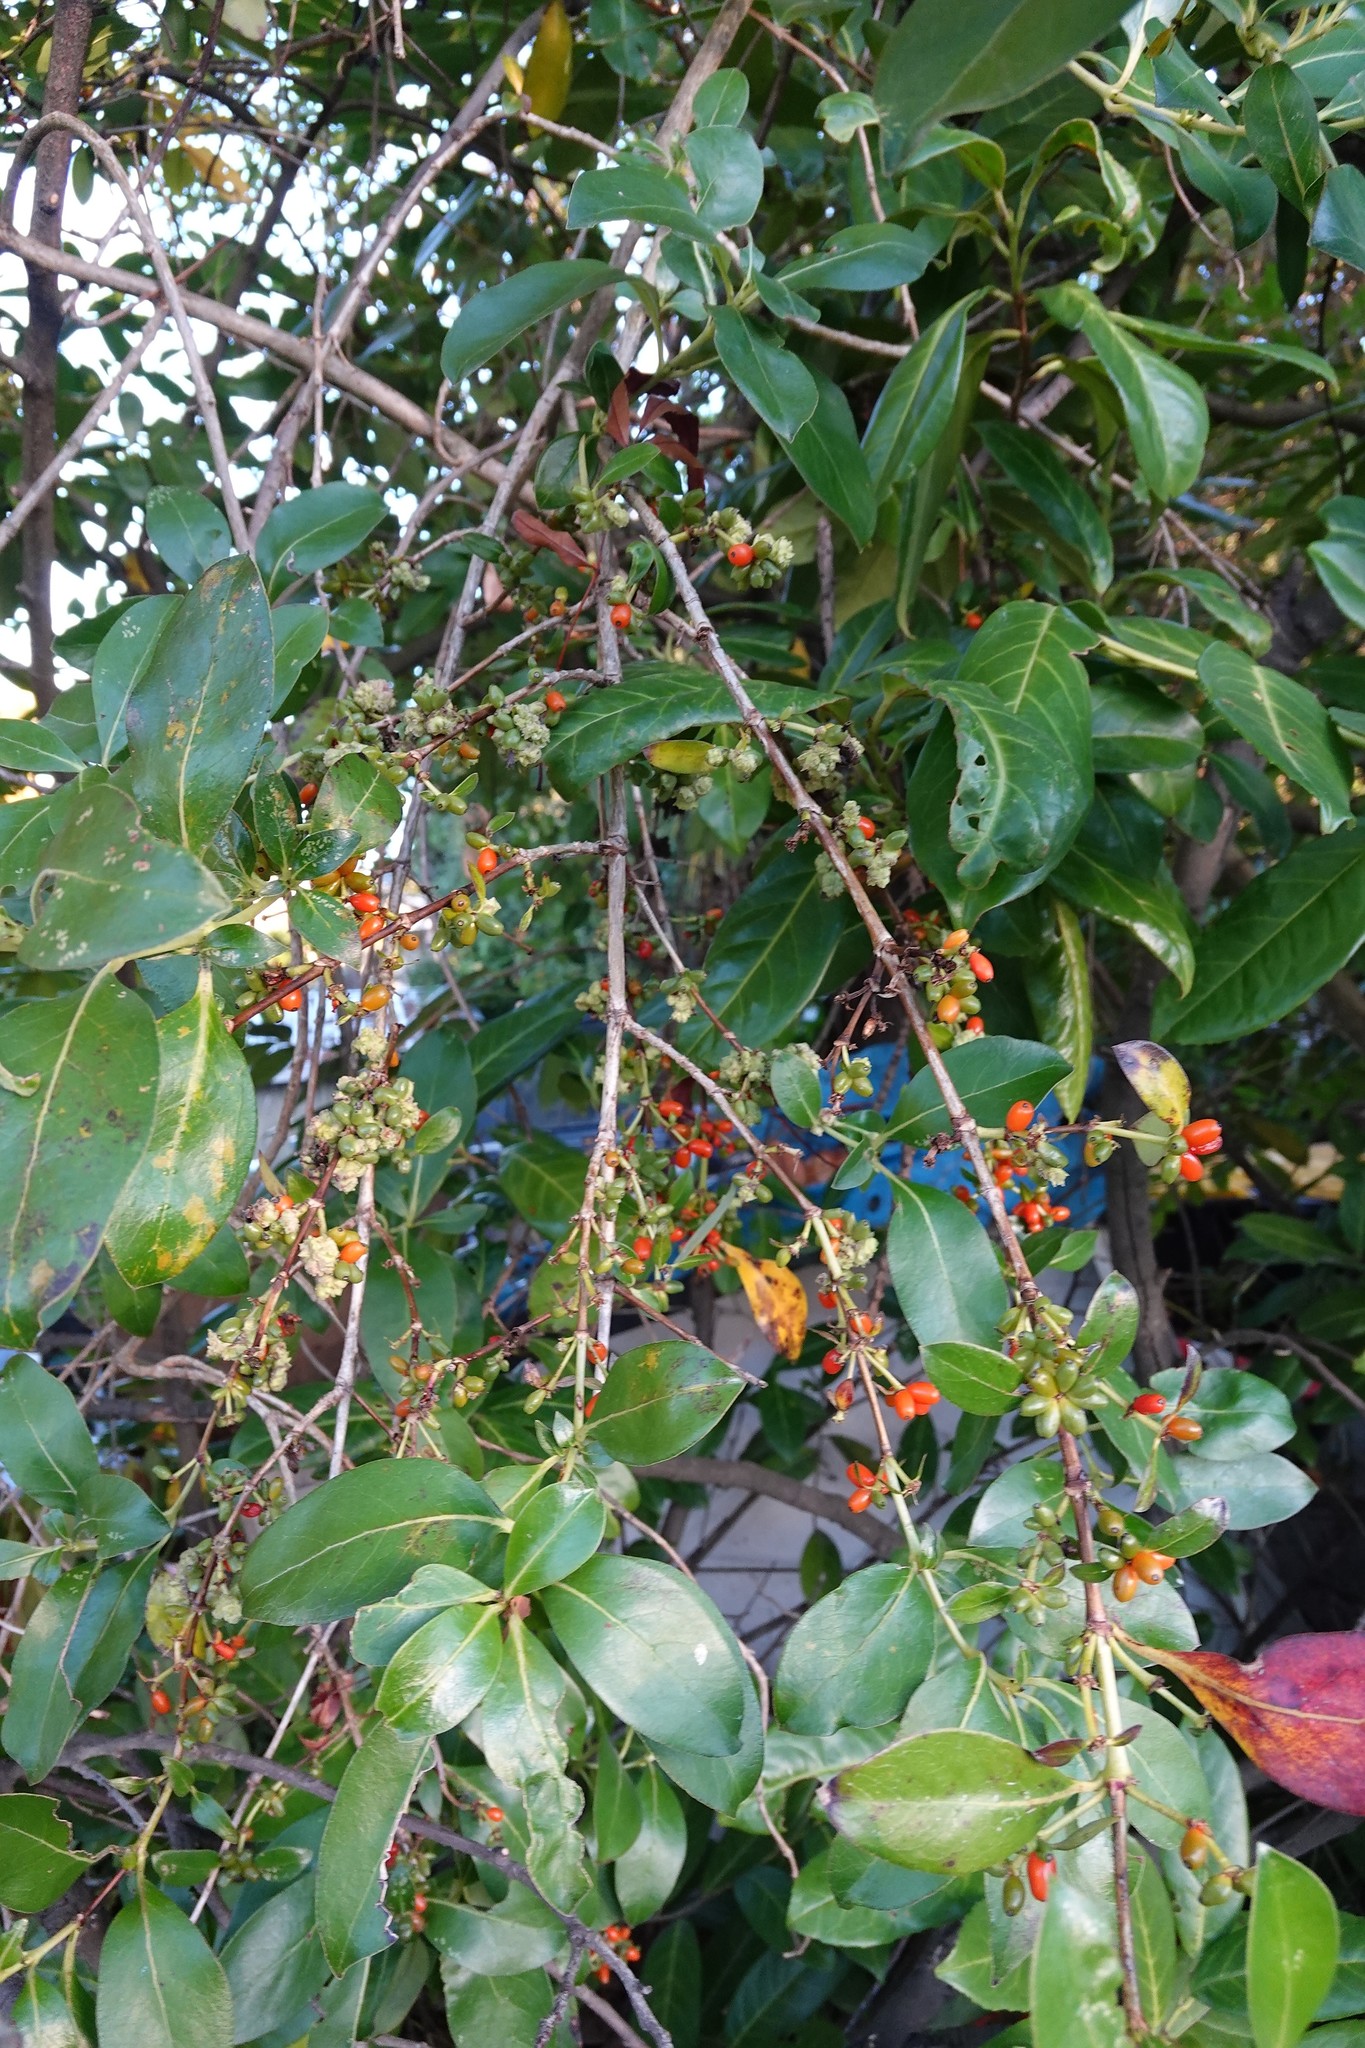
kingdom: Plantae
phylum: Tracheophyta
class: Magnoliopsida
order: Gentianales
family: Rubiaceae
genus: Coprosma
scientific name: Coprosma robusta
